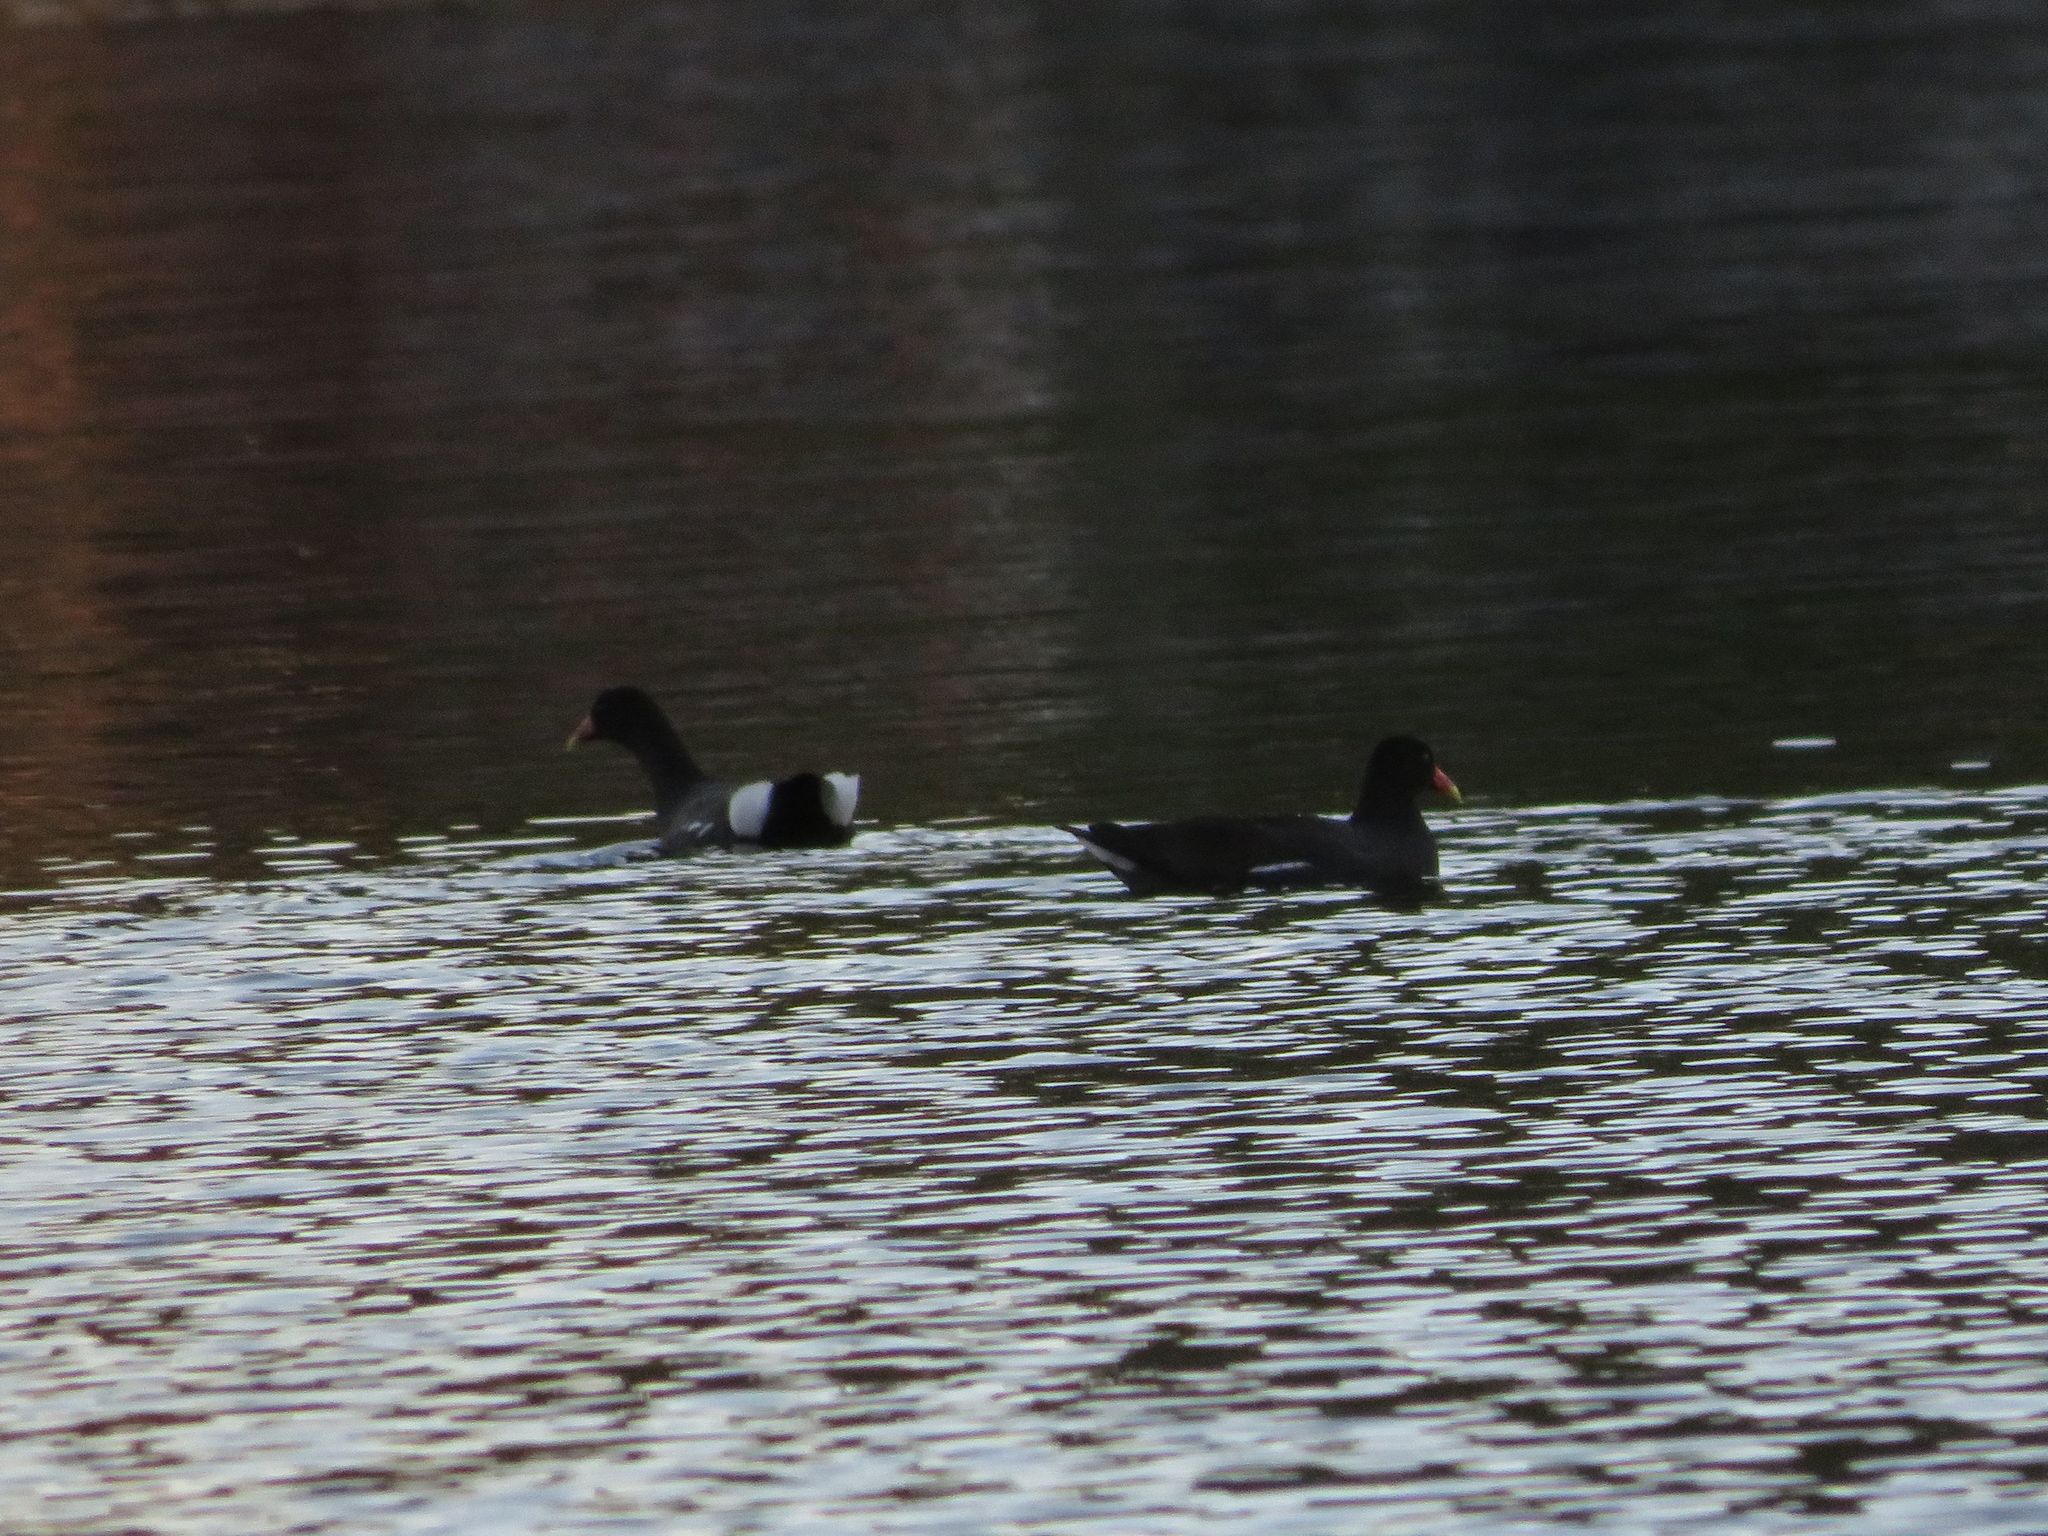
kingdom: Animalia
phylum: Chordata
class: Aves
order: Gruiformes
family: Rallidae
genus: Gallinula
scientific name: Gallinula chloropus
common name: Common moorhen
